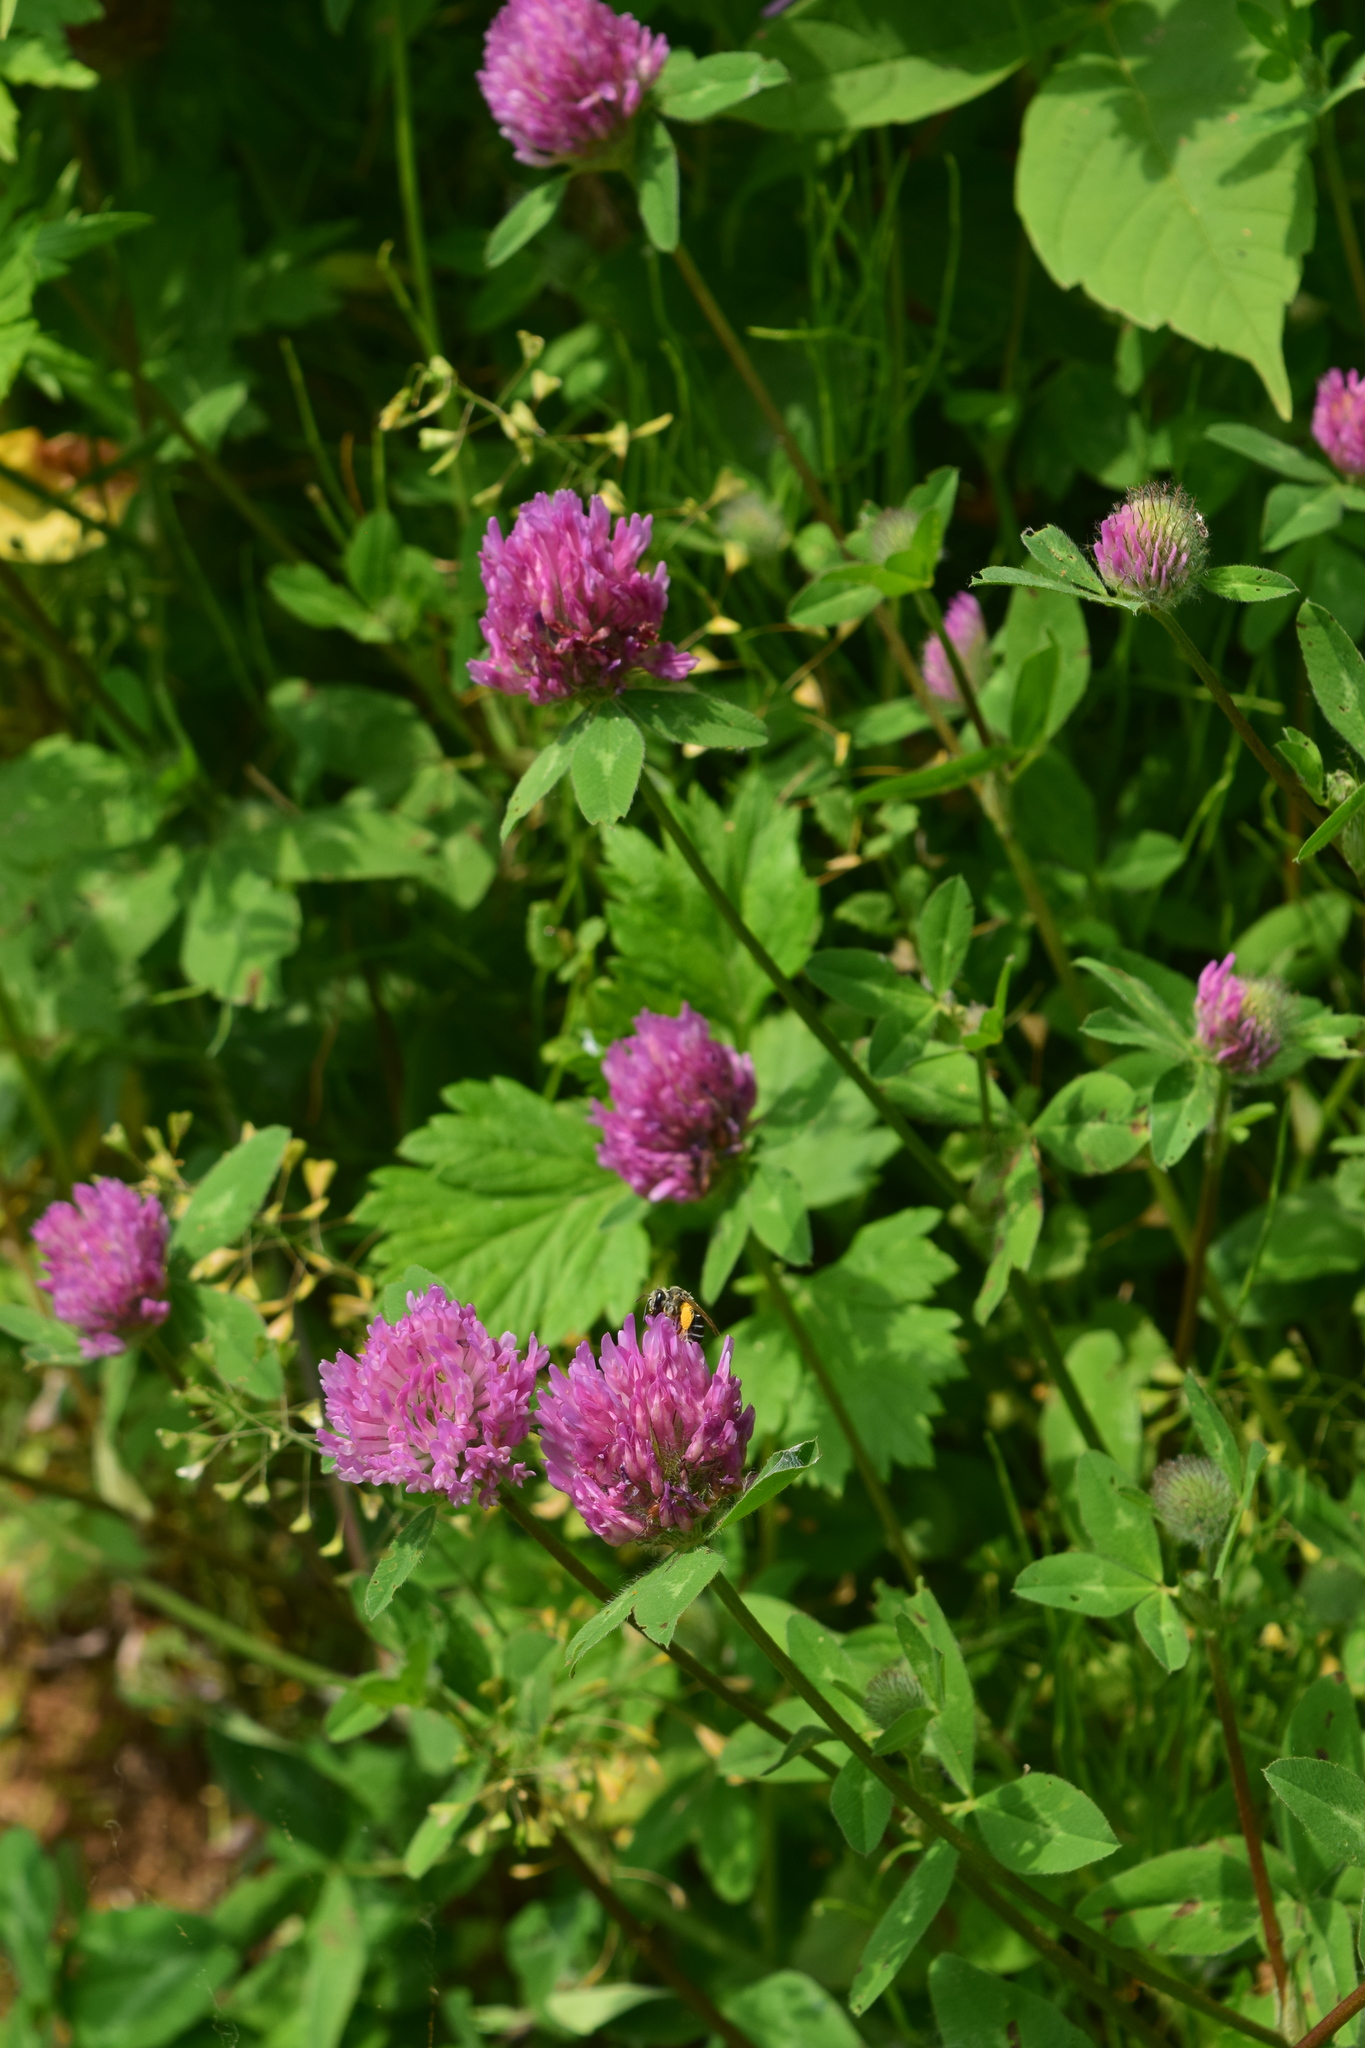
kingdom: Plantae
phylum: Tracheophyta
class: Magnoliopsida
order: Fabales
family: Fabaceae
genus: Trifolium
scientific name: Trifolium pratense
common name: Red clover
